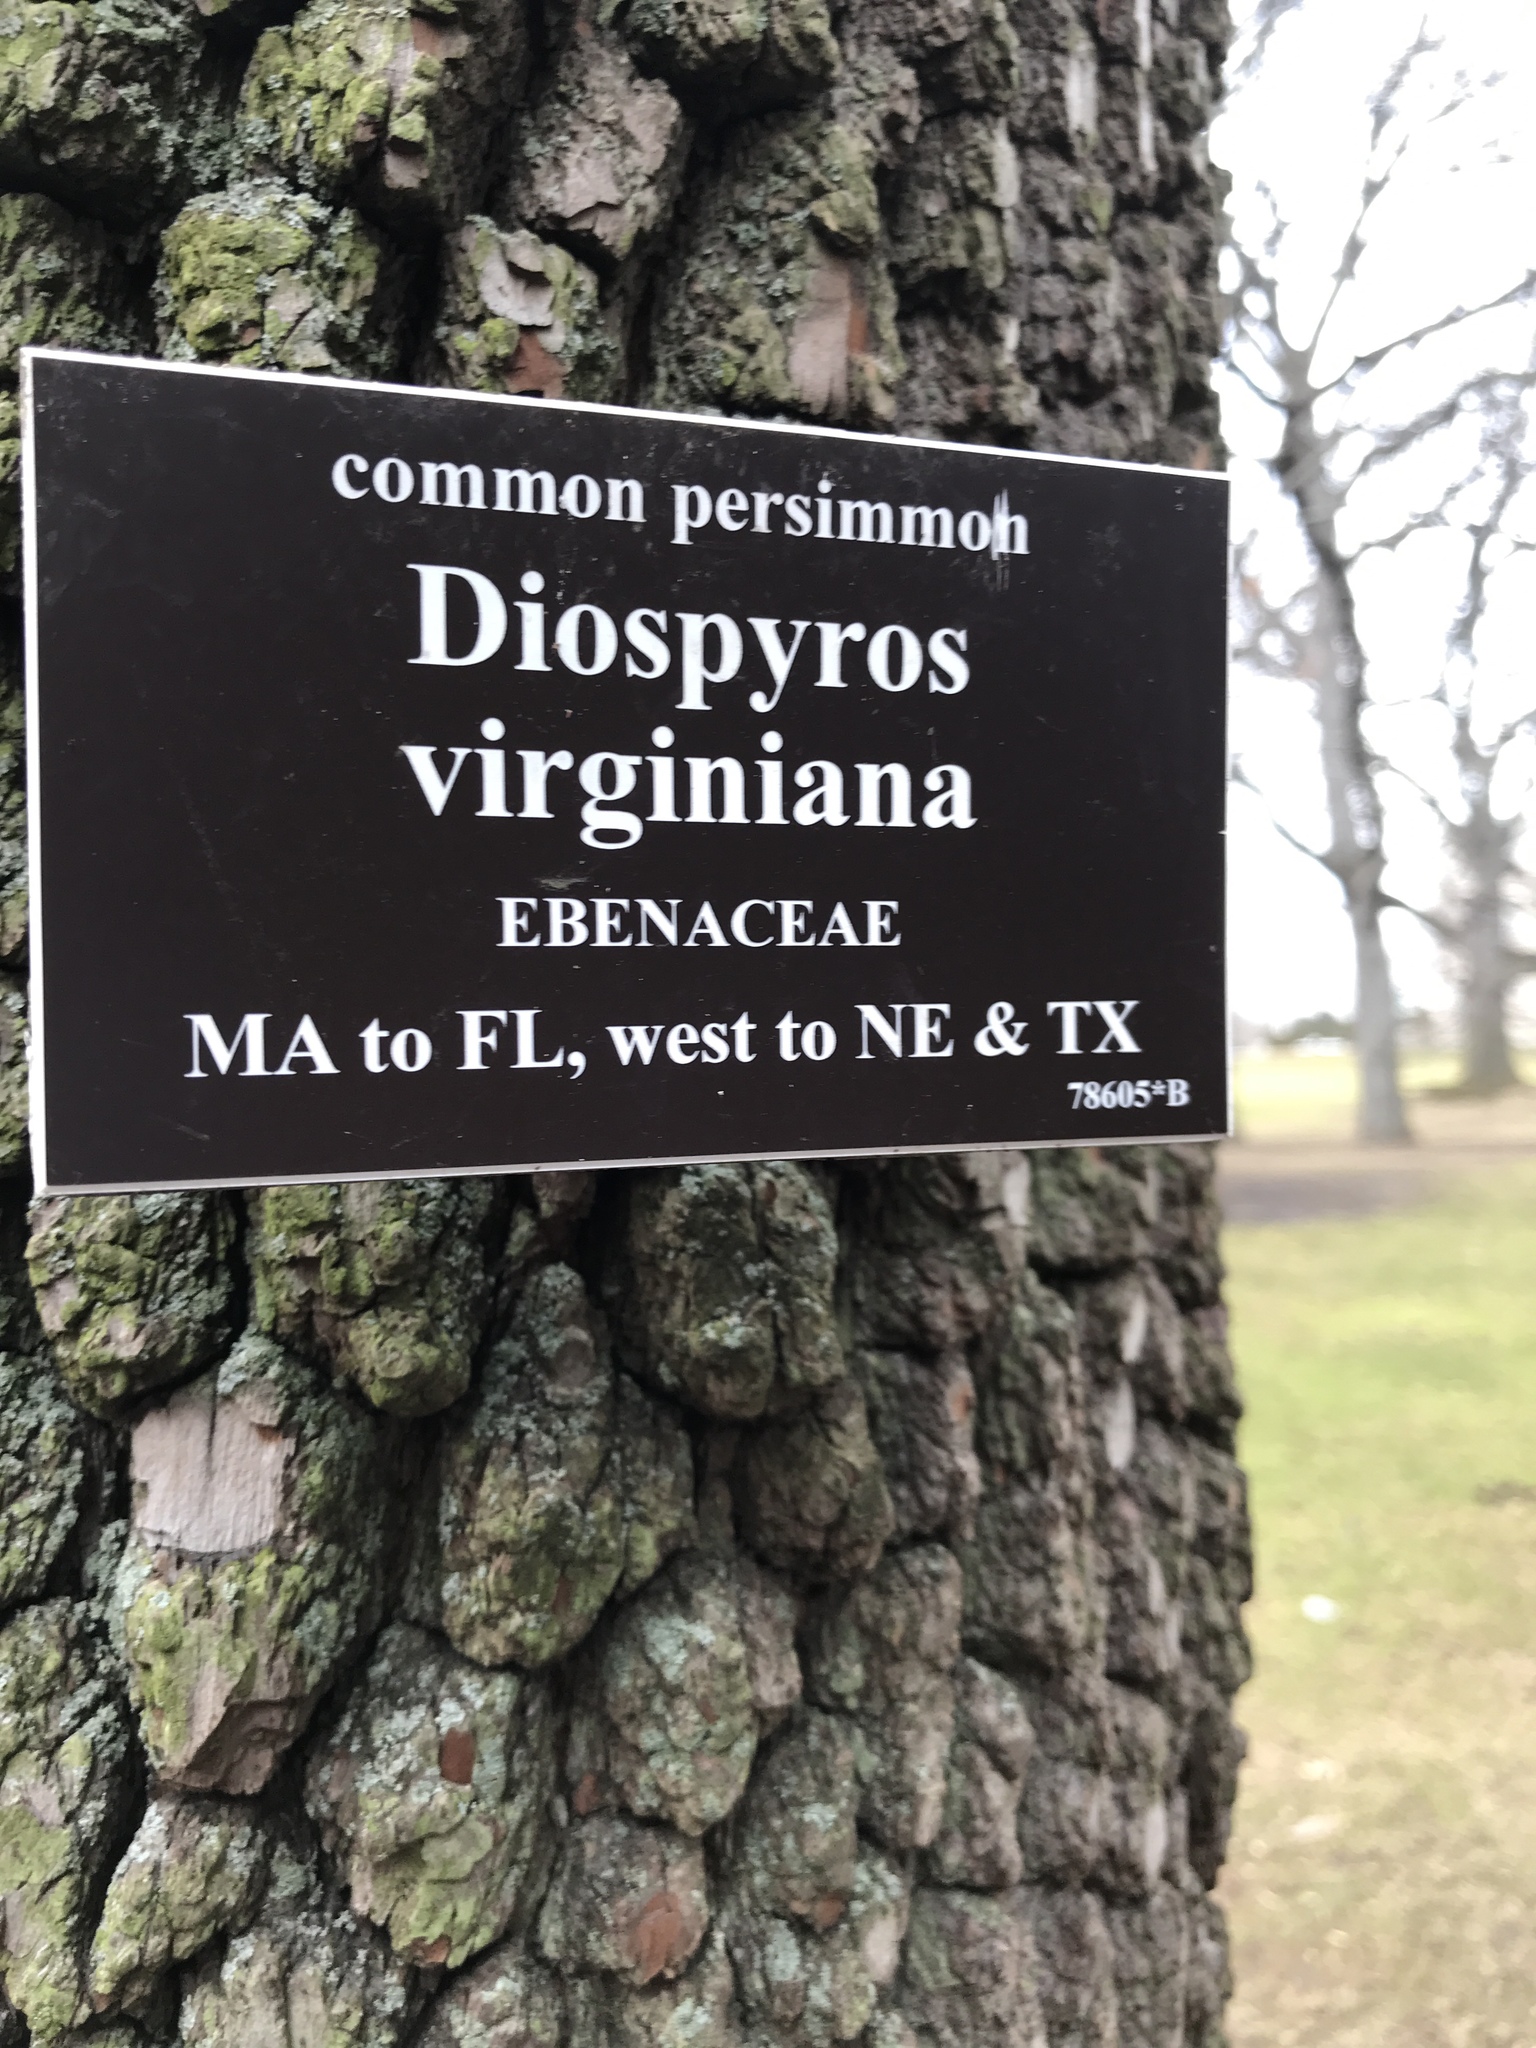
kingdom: Plantae
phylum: Tracheophyta
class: Magnoliopsida
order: Ericales
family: Ebenaceae
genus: Diospyros
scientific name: Diospyros virginiana
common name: Persimmon
